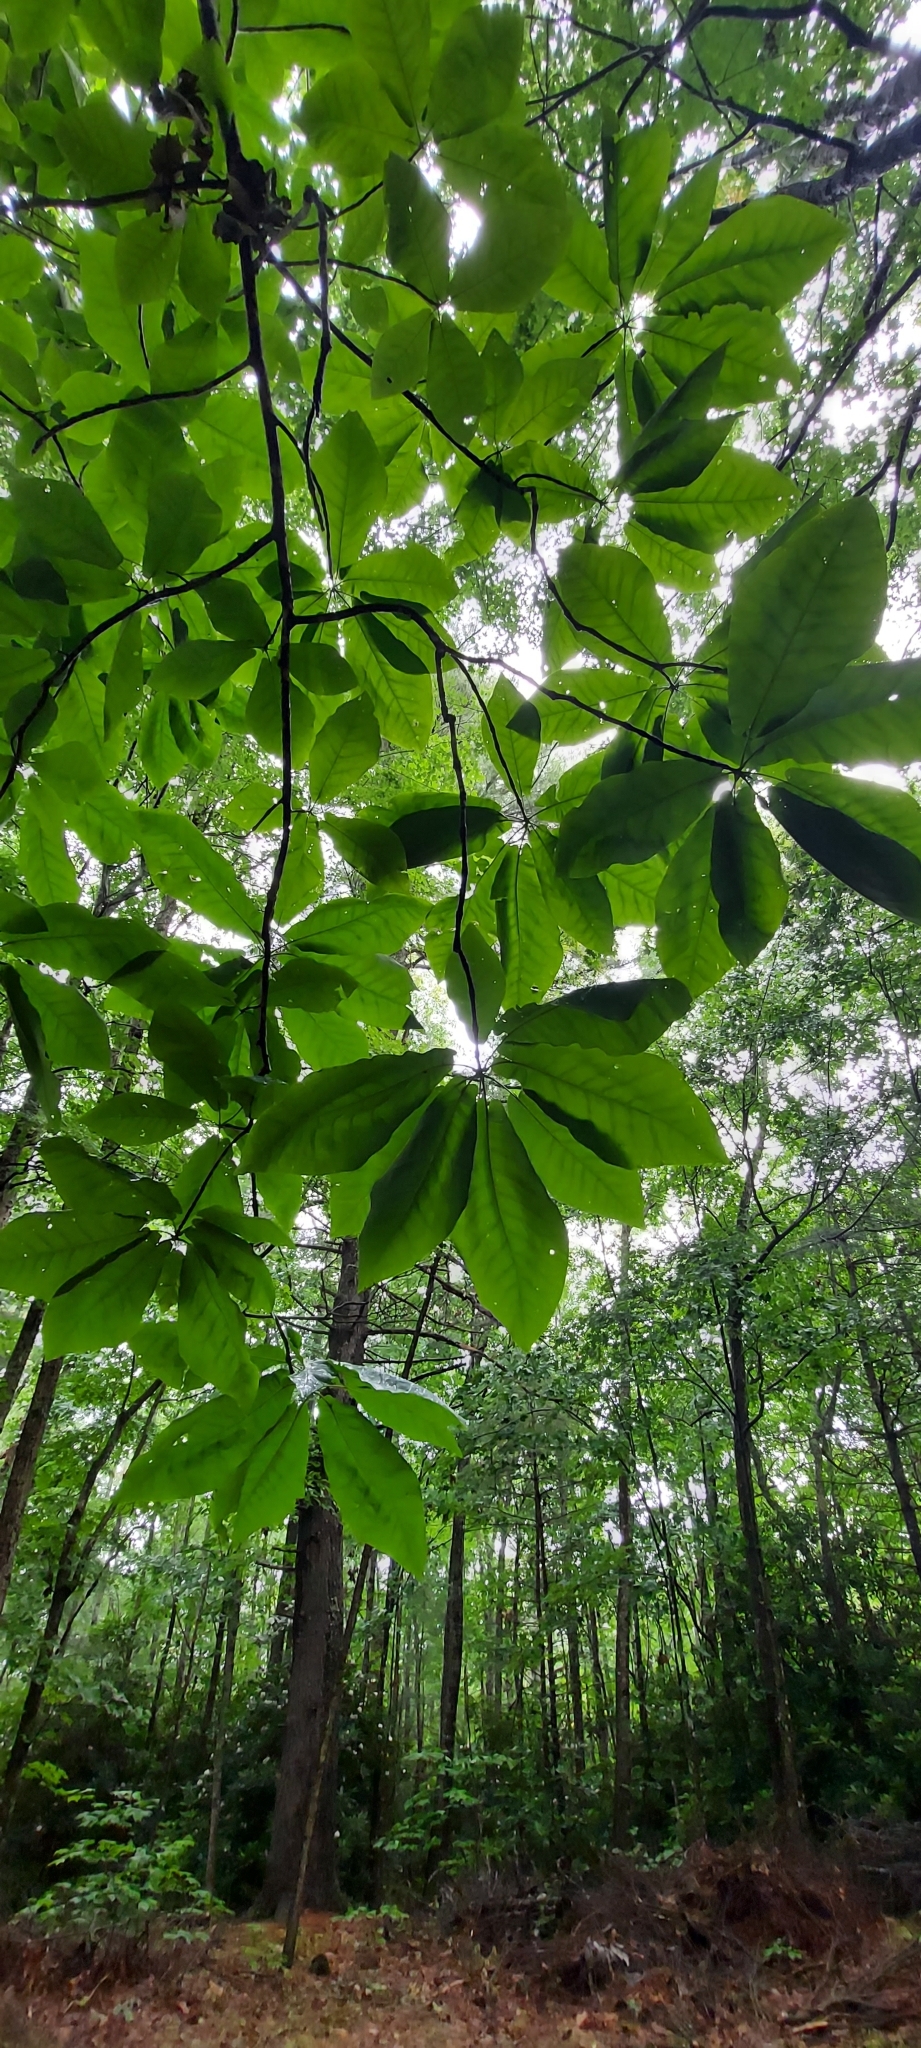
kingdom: Plantae
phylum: Tracheophyta
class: Magnoliopsida
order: Magnoliales
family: Magnoliaceae
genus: Magnolia
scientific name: Magnolia macrophylla
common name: Big-leaf magnolia
